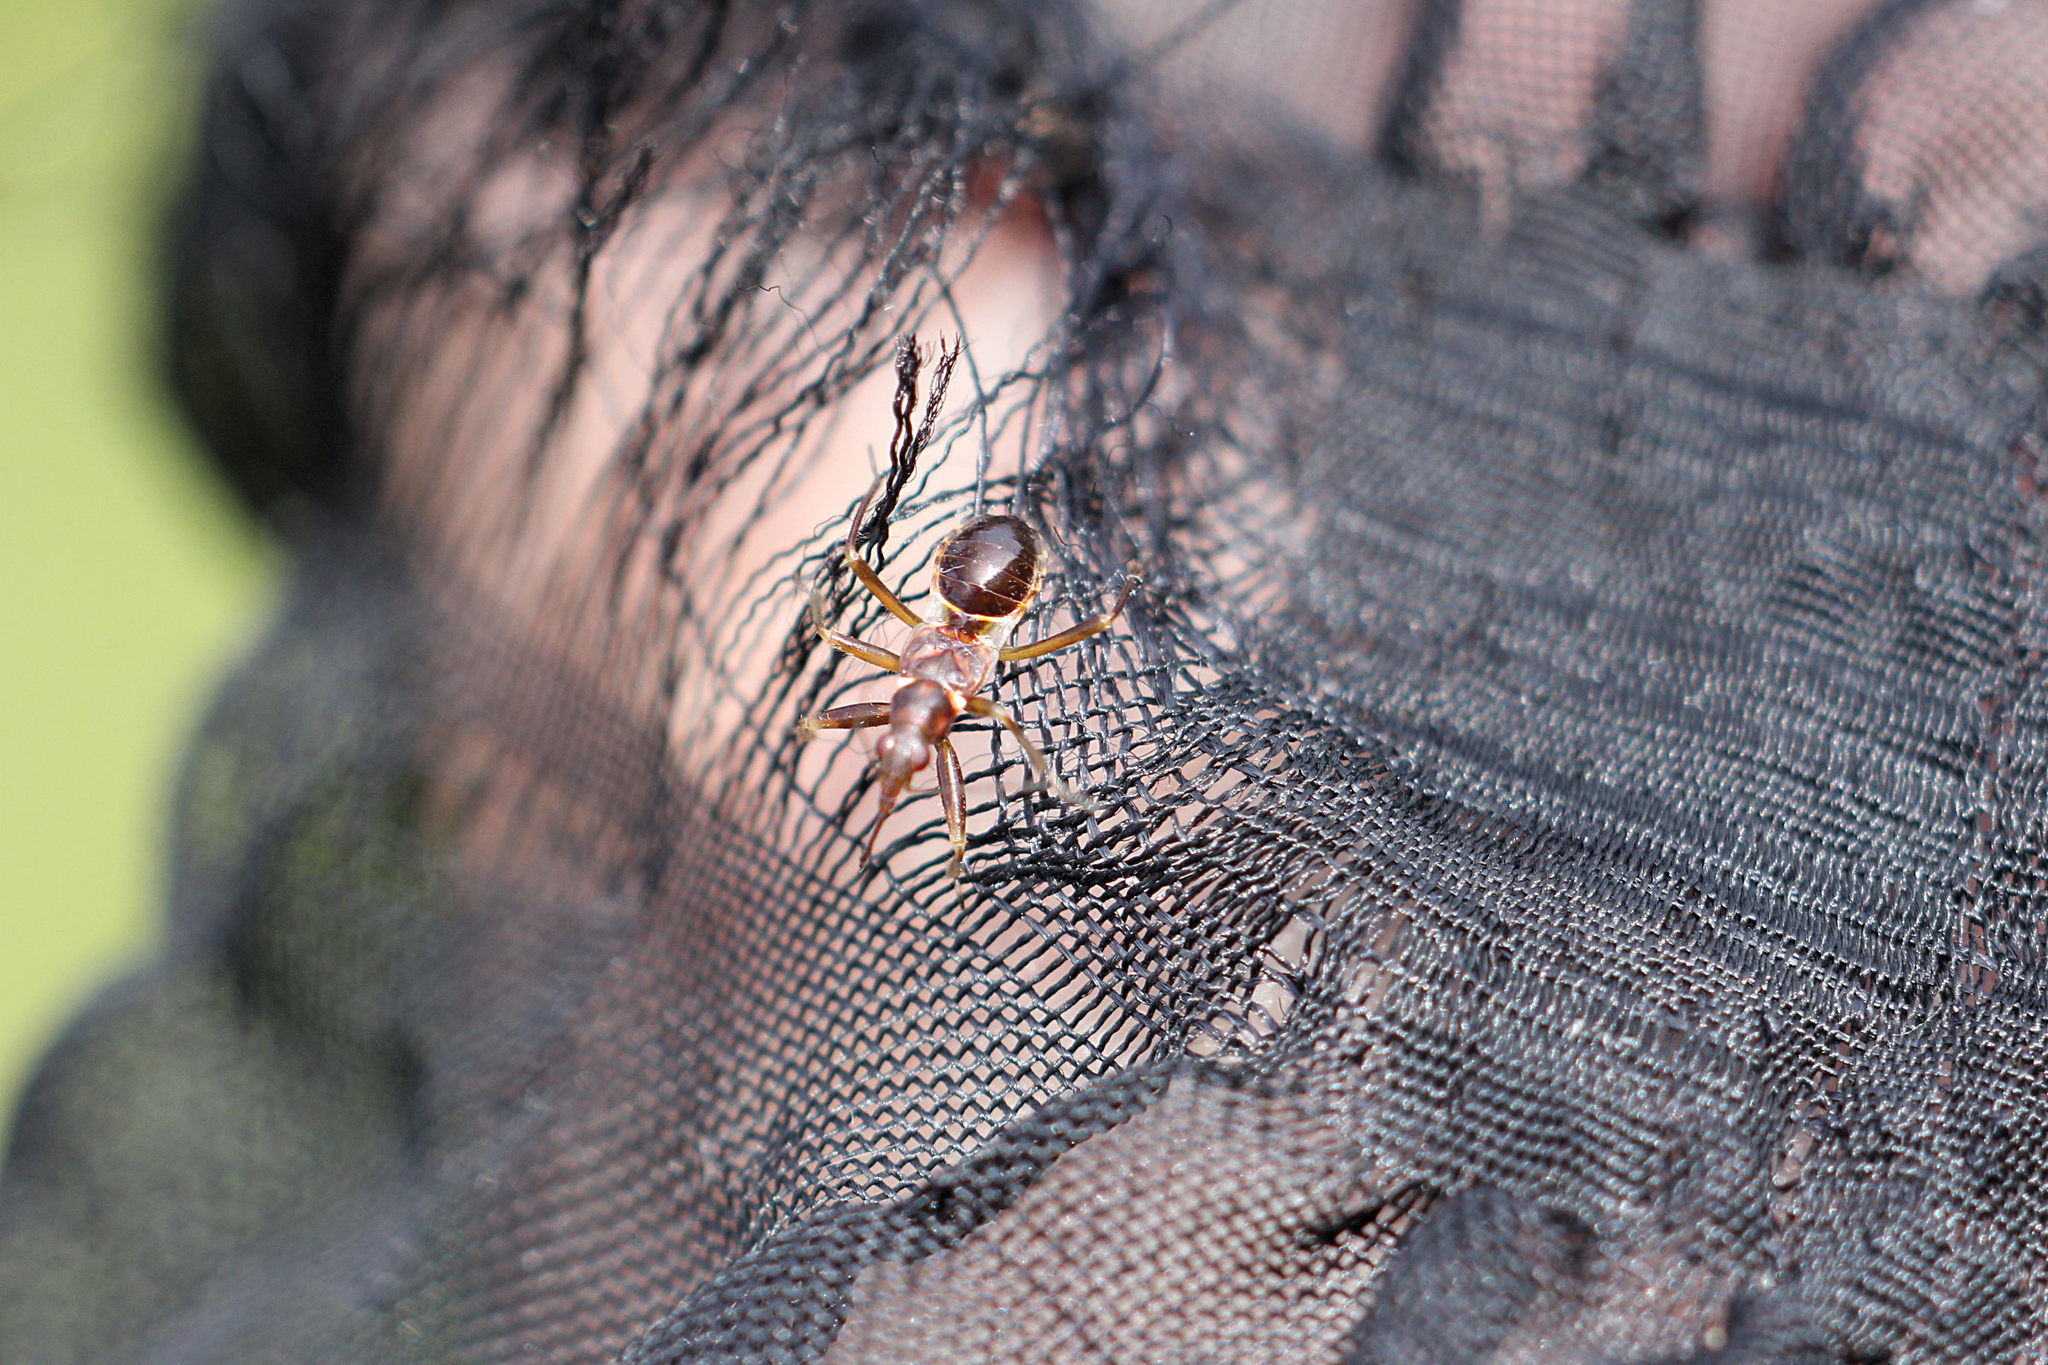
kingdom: Animalia
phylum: Arthropoda
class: Insecta
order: Hemiptera
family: Nabidae
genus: Himacerus
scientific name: Himacerus mirmicoides
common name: Ant damsel bug
